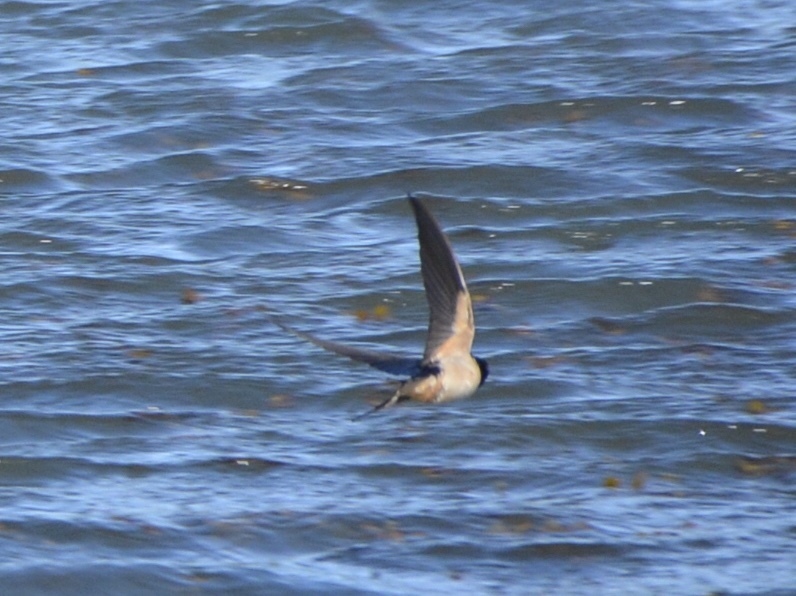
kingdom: Animalia
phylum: Chordata
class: Aves
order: Passeriformes
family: Hirundinidae
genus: Hirundo
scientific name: Hirundo rustica
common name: Barn swallow
